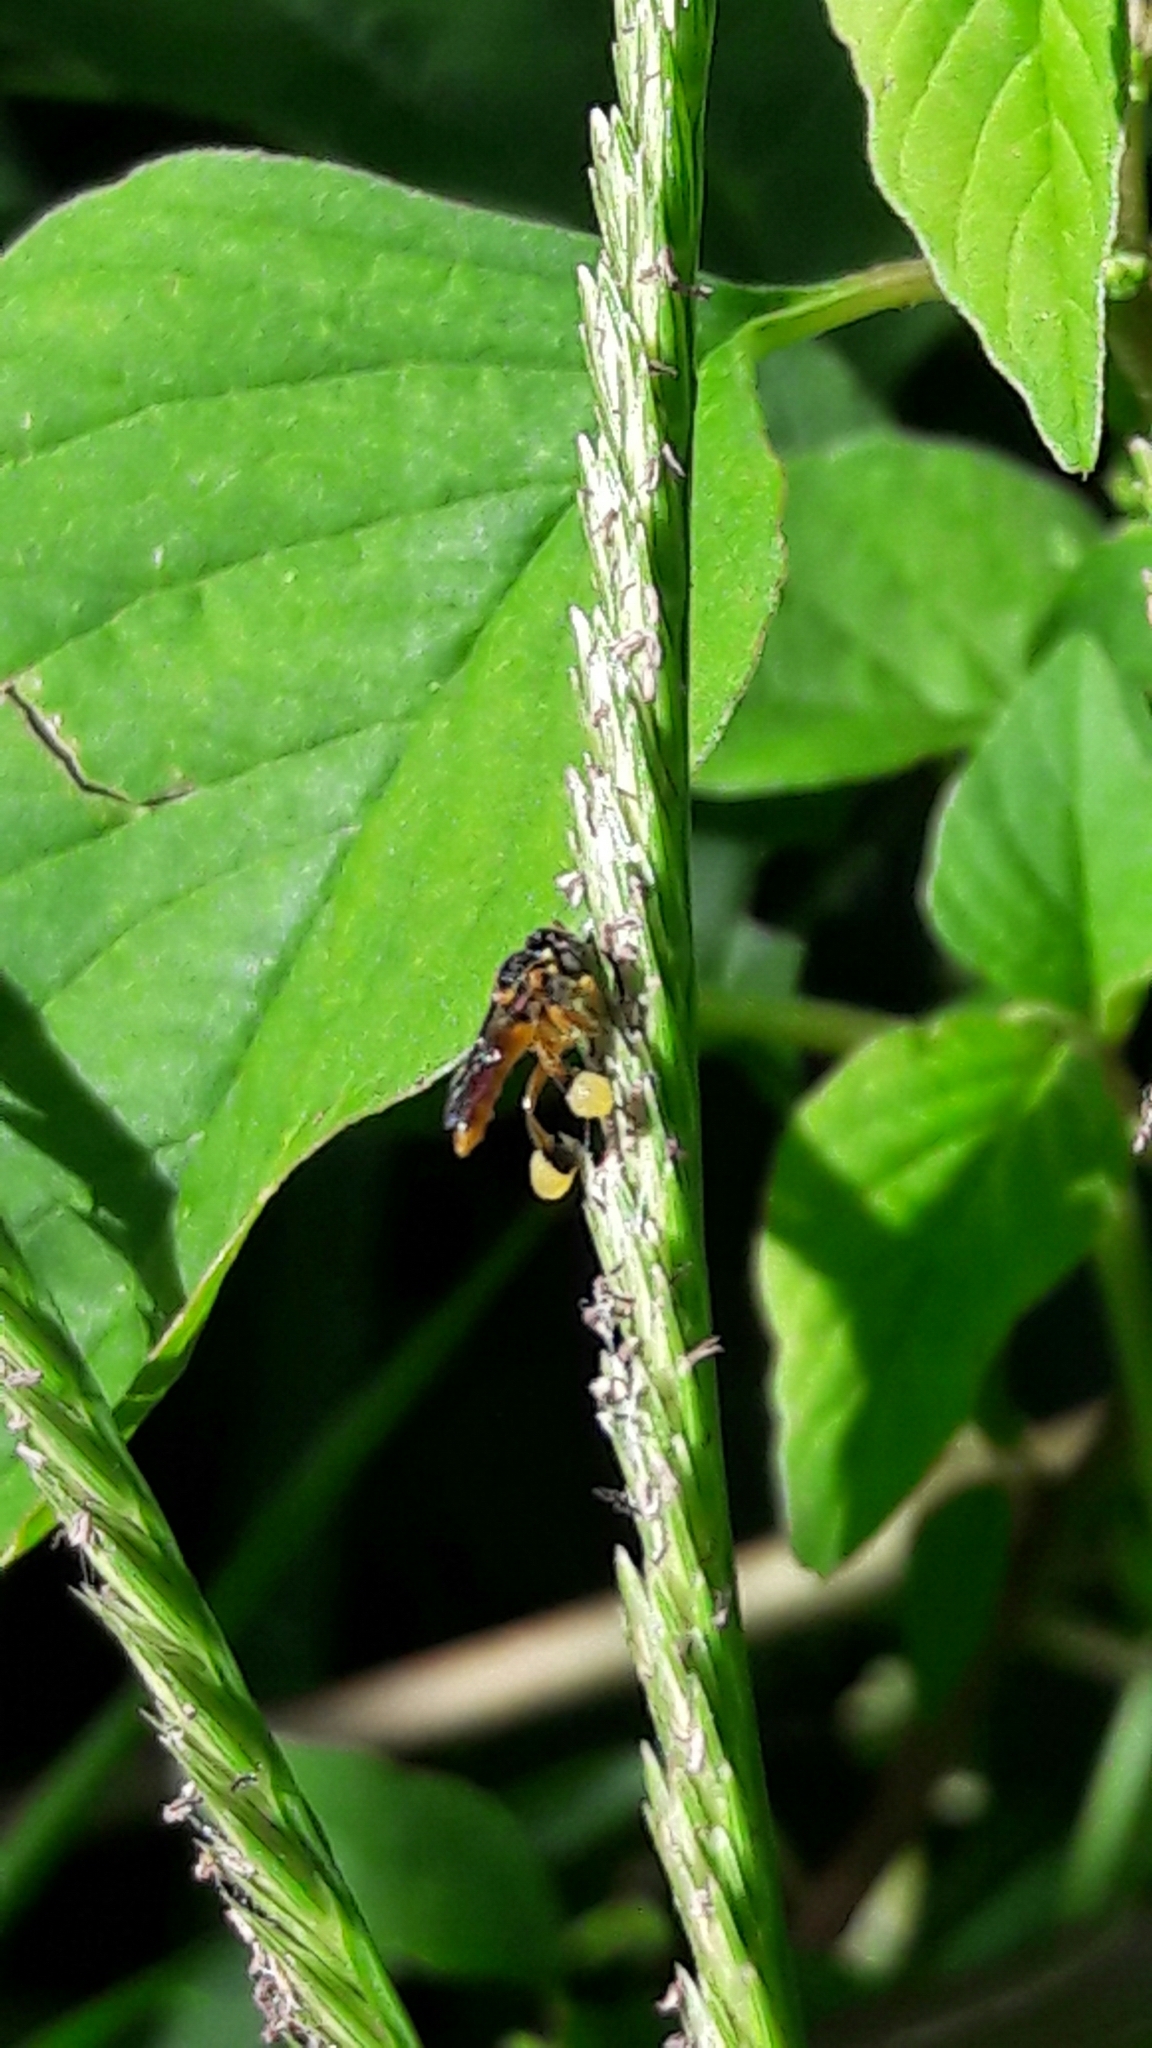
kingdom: Animalia
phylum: Arthropoda
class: Insecta
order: Hymenoptera
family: Apidae
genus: Tetragonisca
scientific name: Tetragonisca angustula
